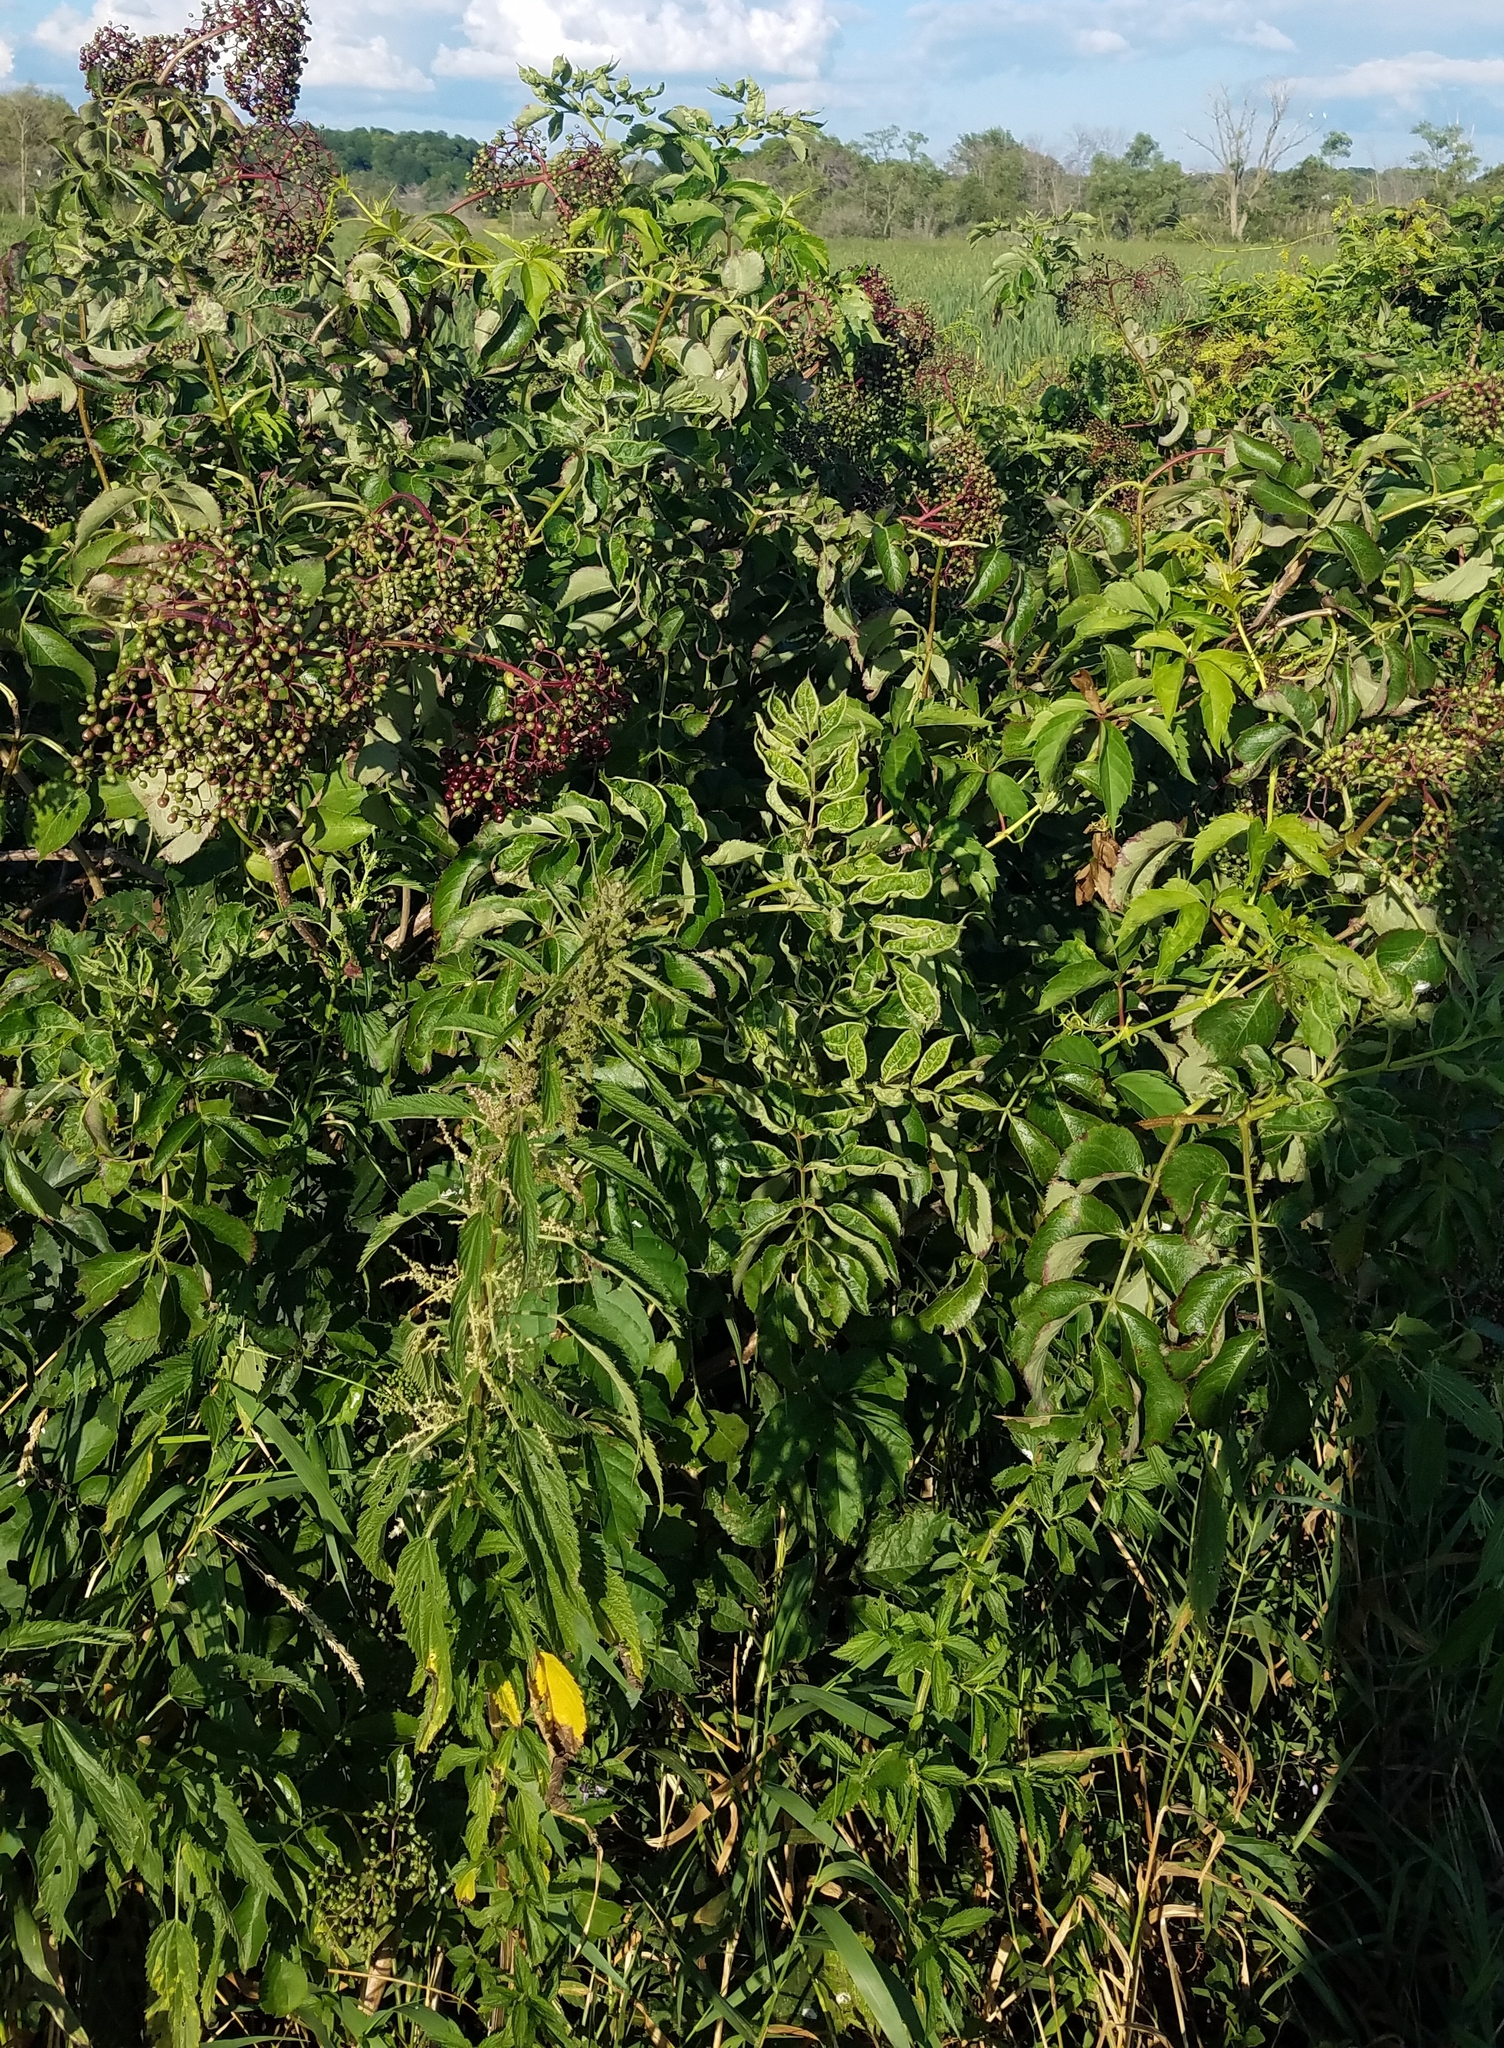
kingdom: Plantae
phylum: Tracheophyta
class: Magnoliopsida
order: Dipsacales
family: Viburnaceae
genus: Sambucus
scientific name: Sambucus canadensis
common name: American elder
